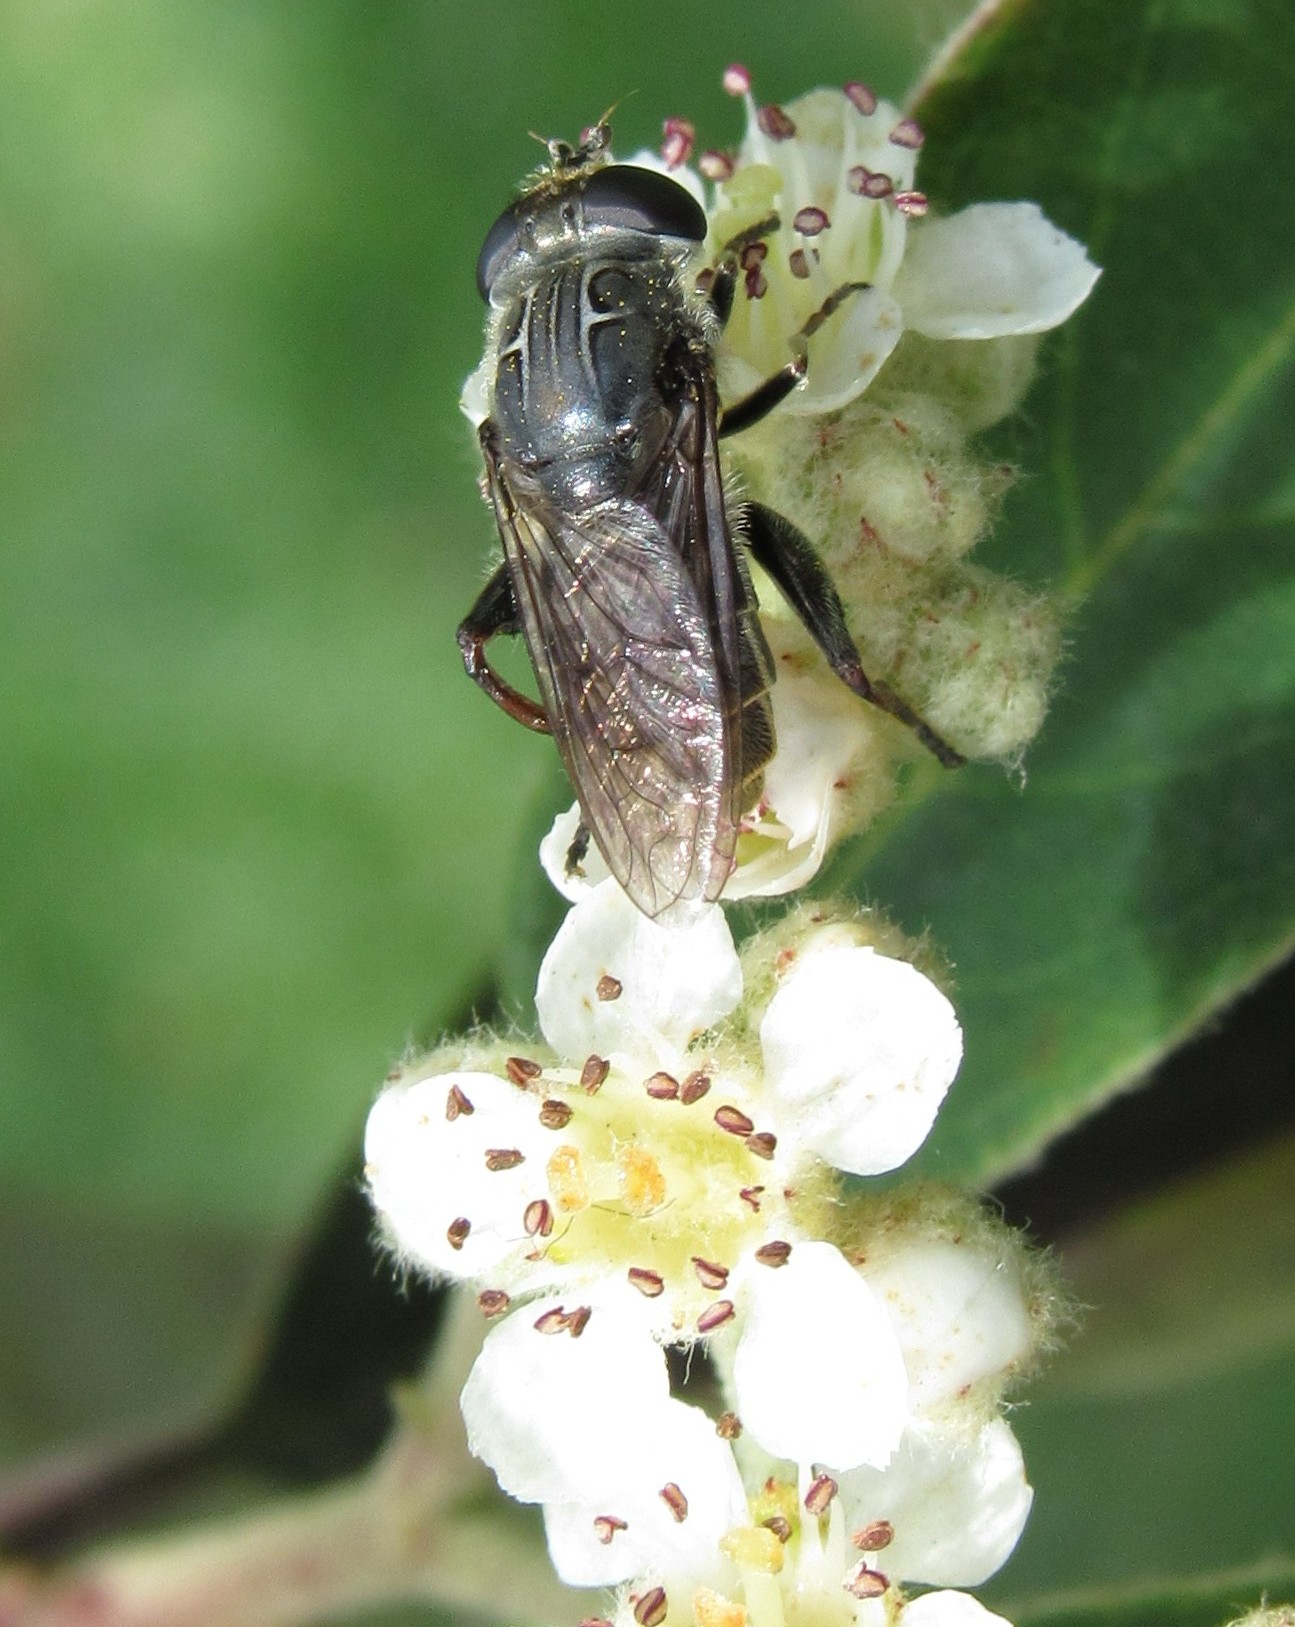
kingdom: Animalia
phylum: Arthropoda
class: Insecta
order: Diptera
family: Syrphidae
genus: Asemosyrphus
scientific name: Asemosyrphus
